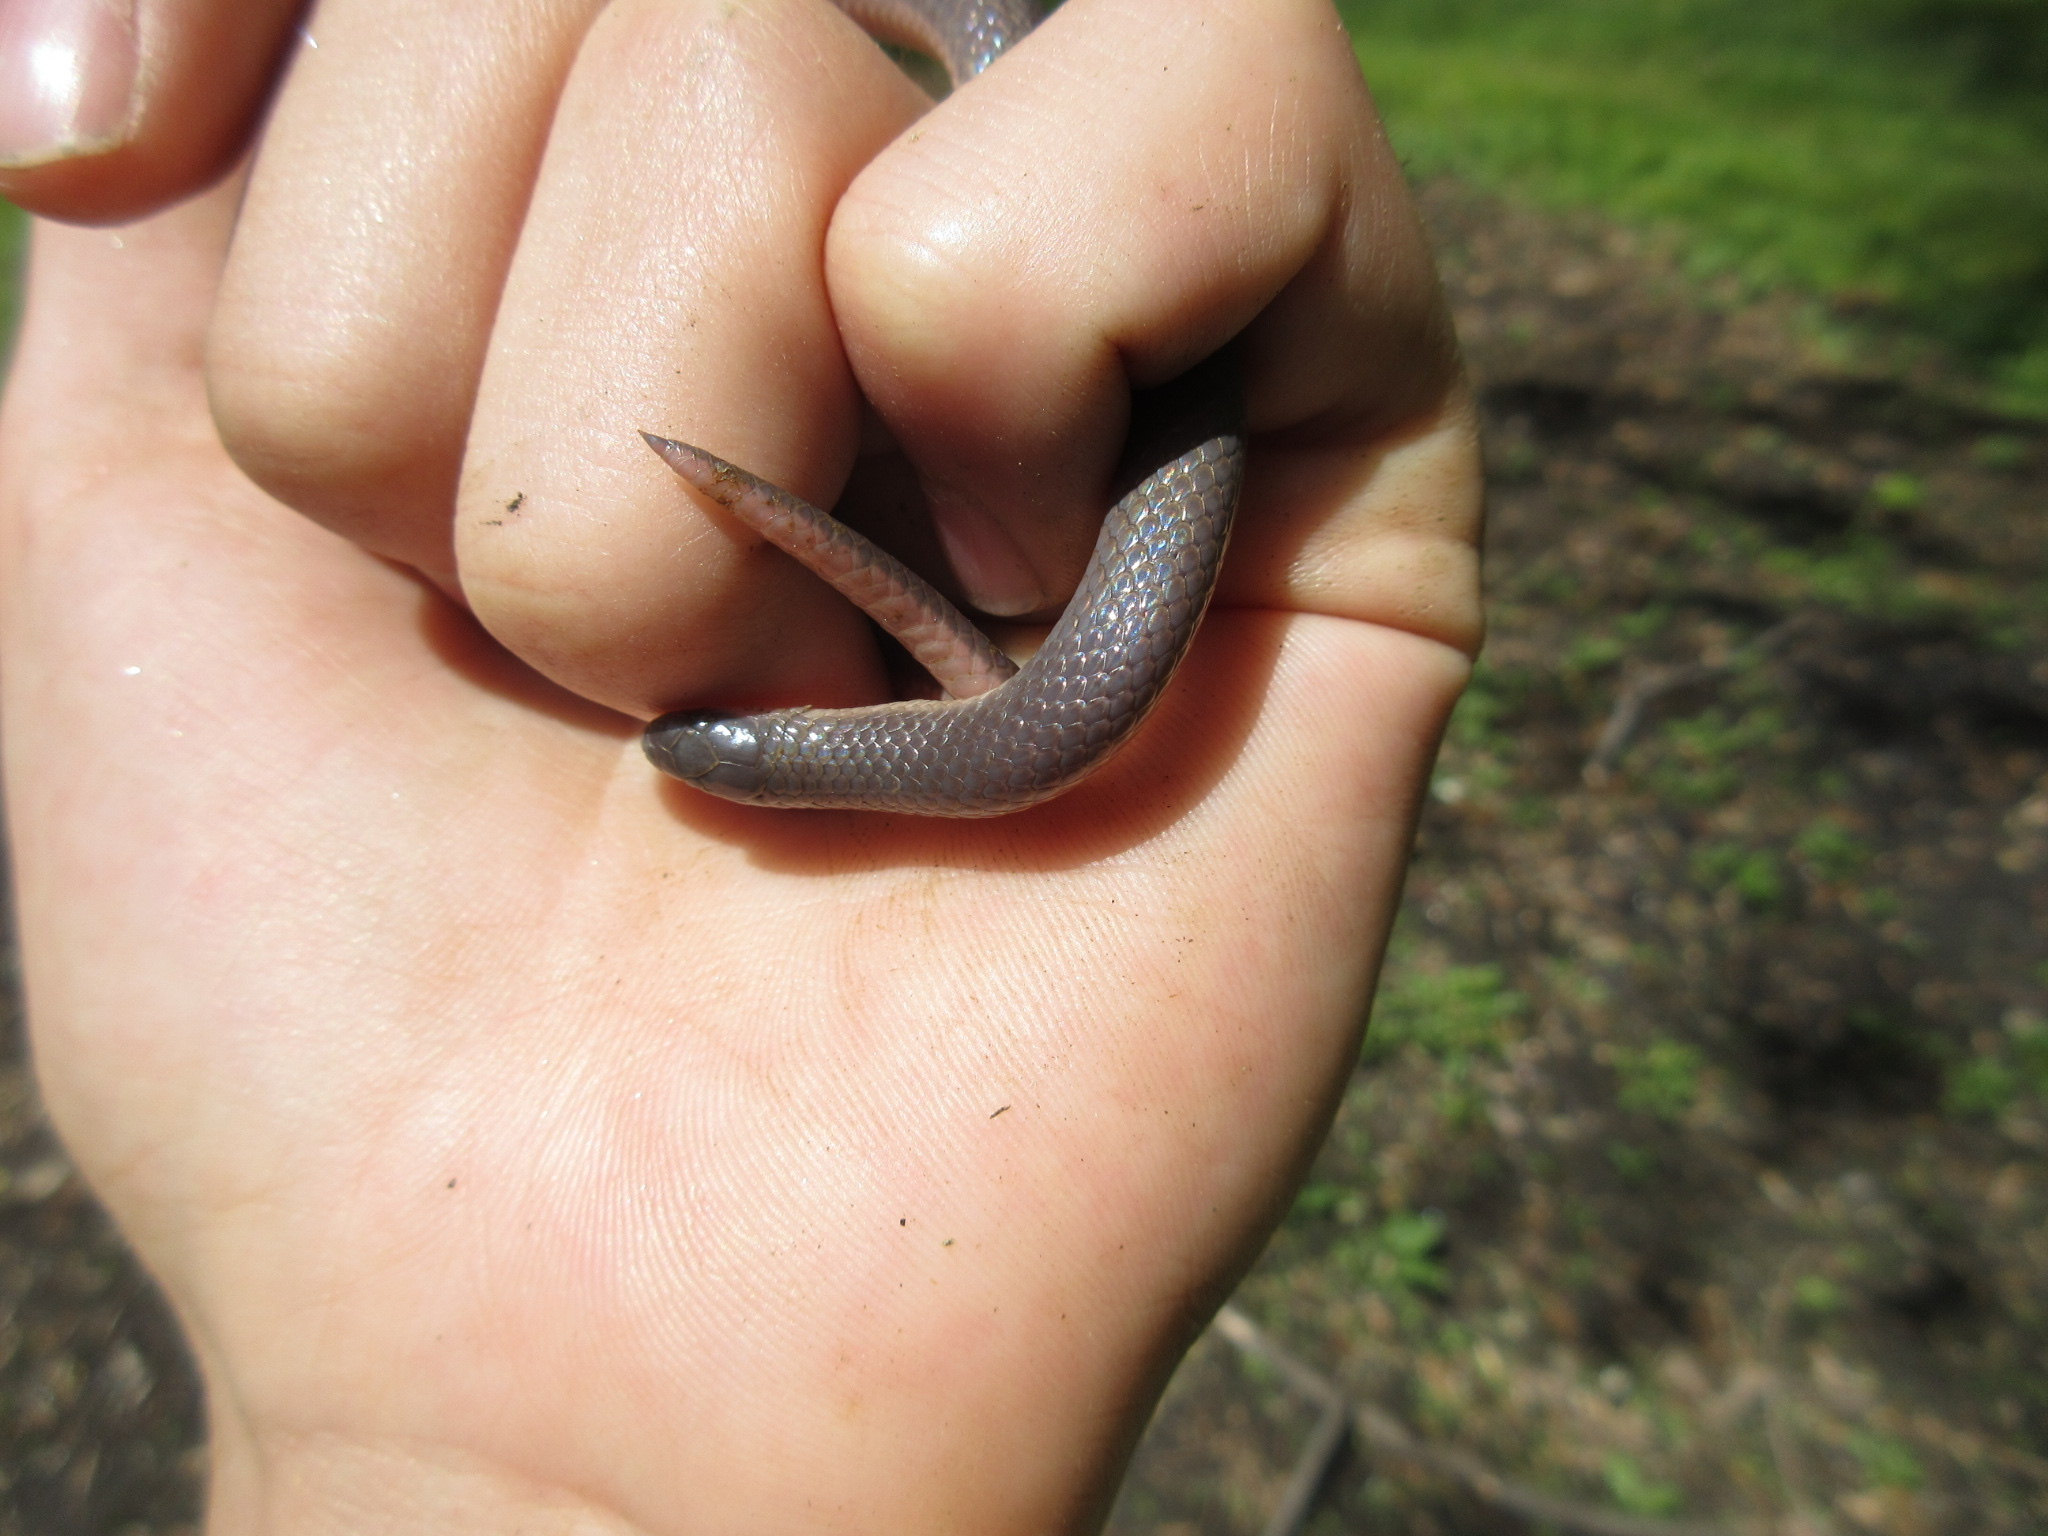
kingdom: Animalia
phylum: Chordata
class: Squamata
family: Colubridae
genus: Carphophis
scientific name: Carphophis amoenus
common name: Eastern worm snake
